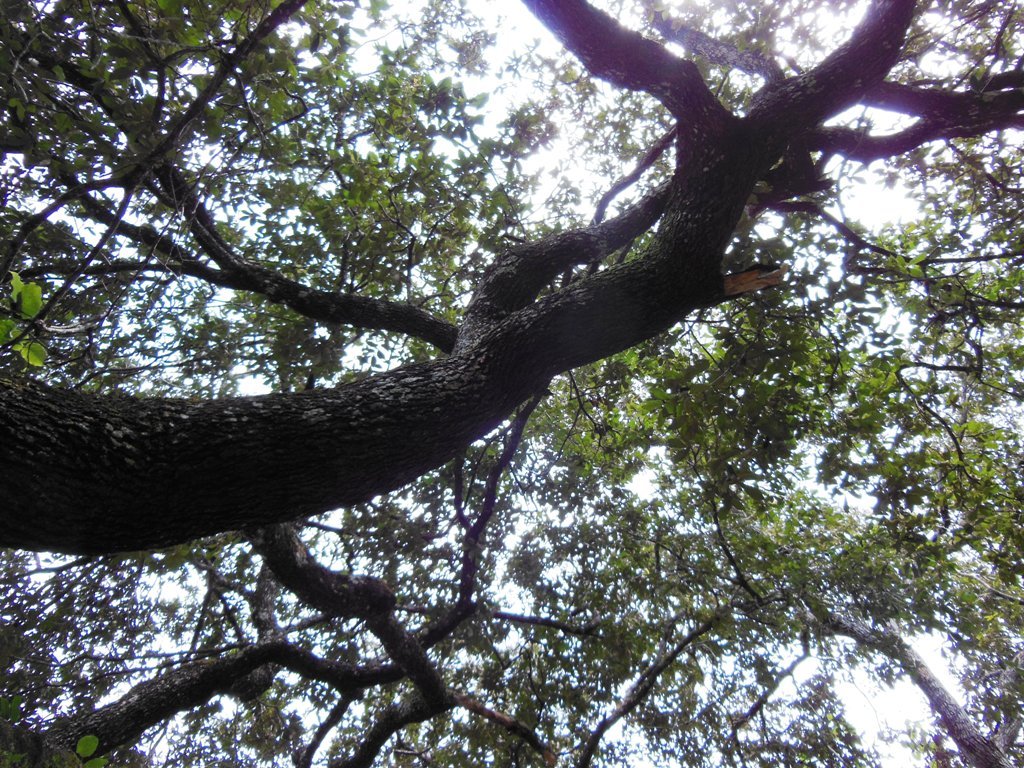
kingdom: Plantae
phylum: Tracheophyta
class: Magnoliopsida
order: Fagales
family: Fagaceae
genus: Quercus
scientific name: Quercus peduncularis
